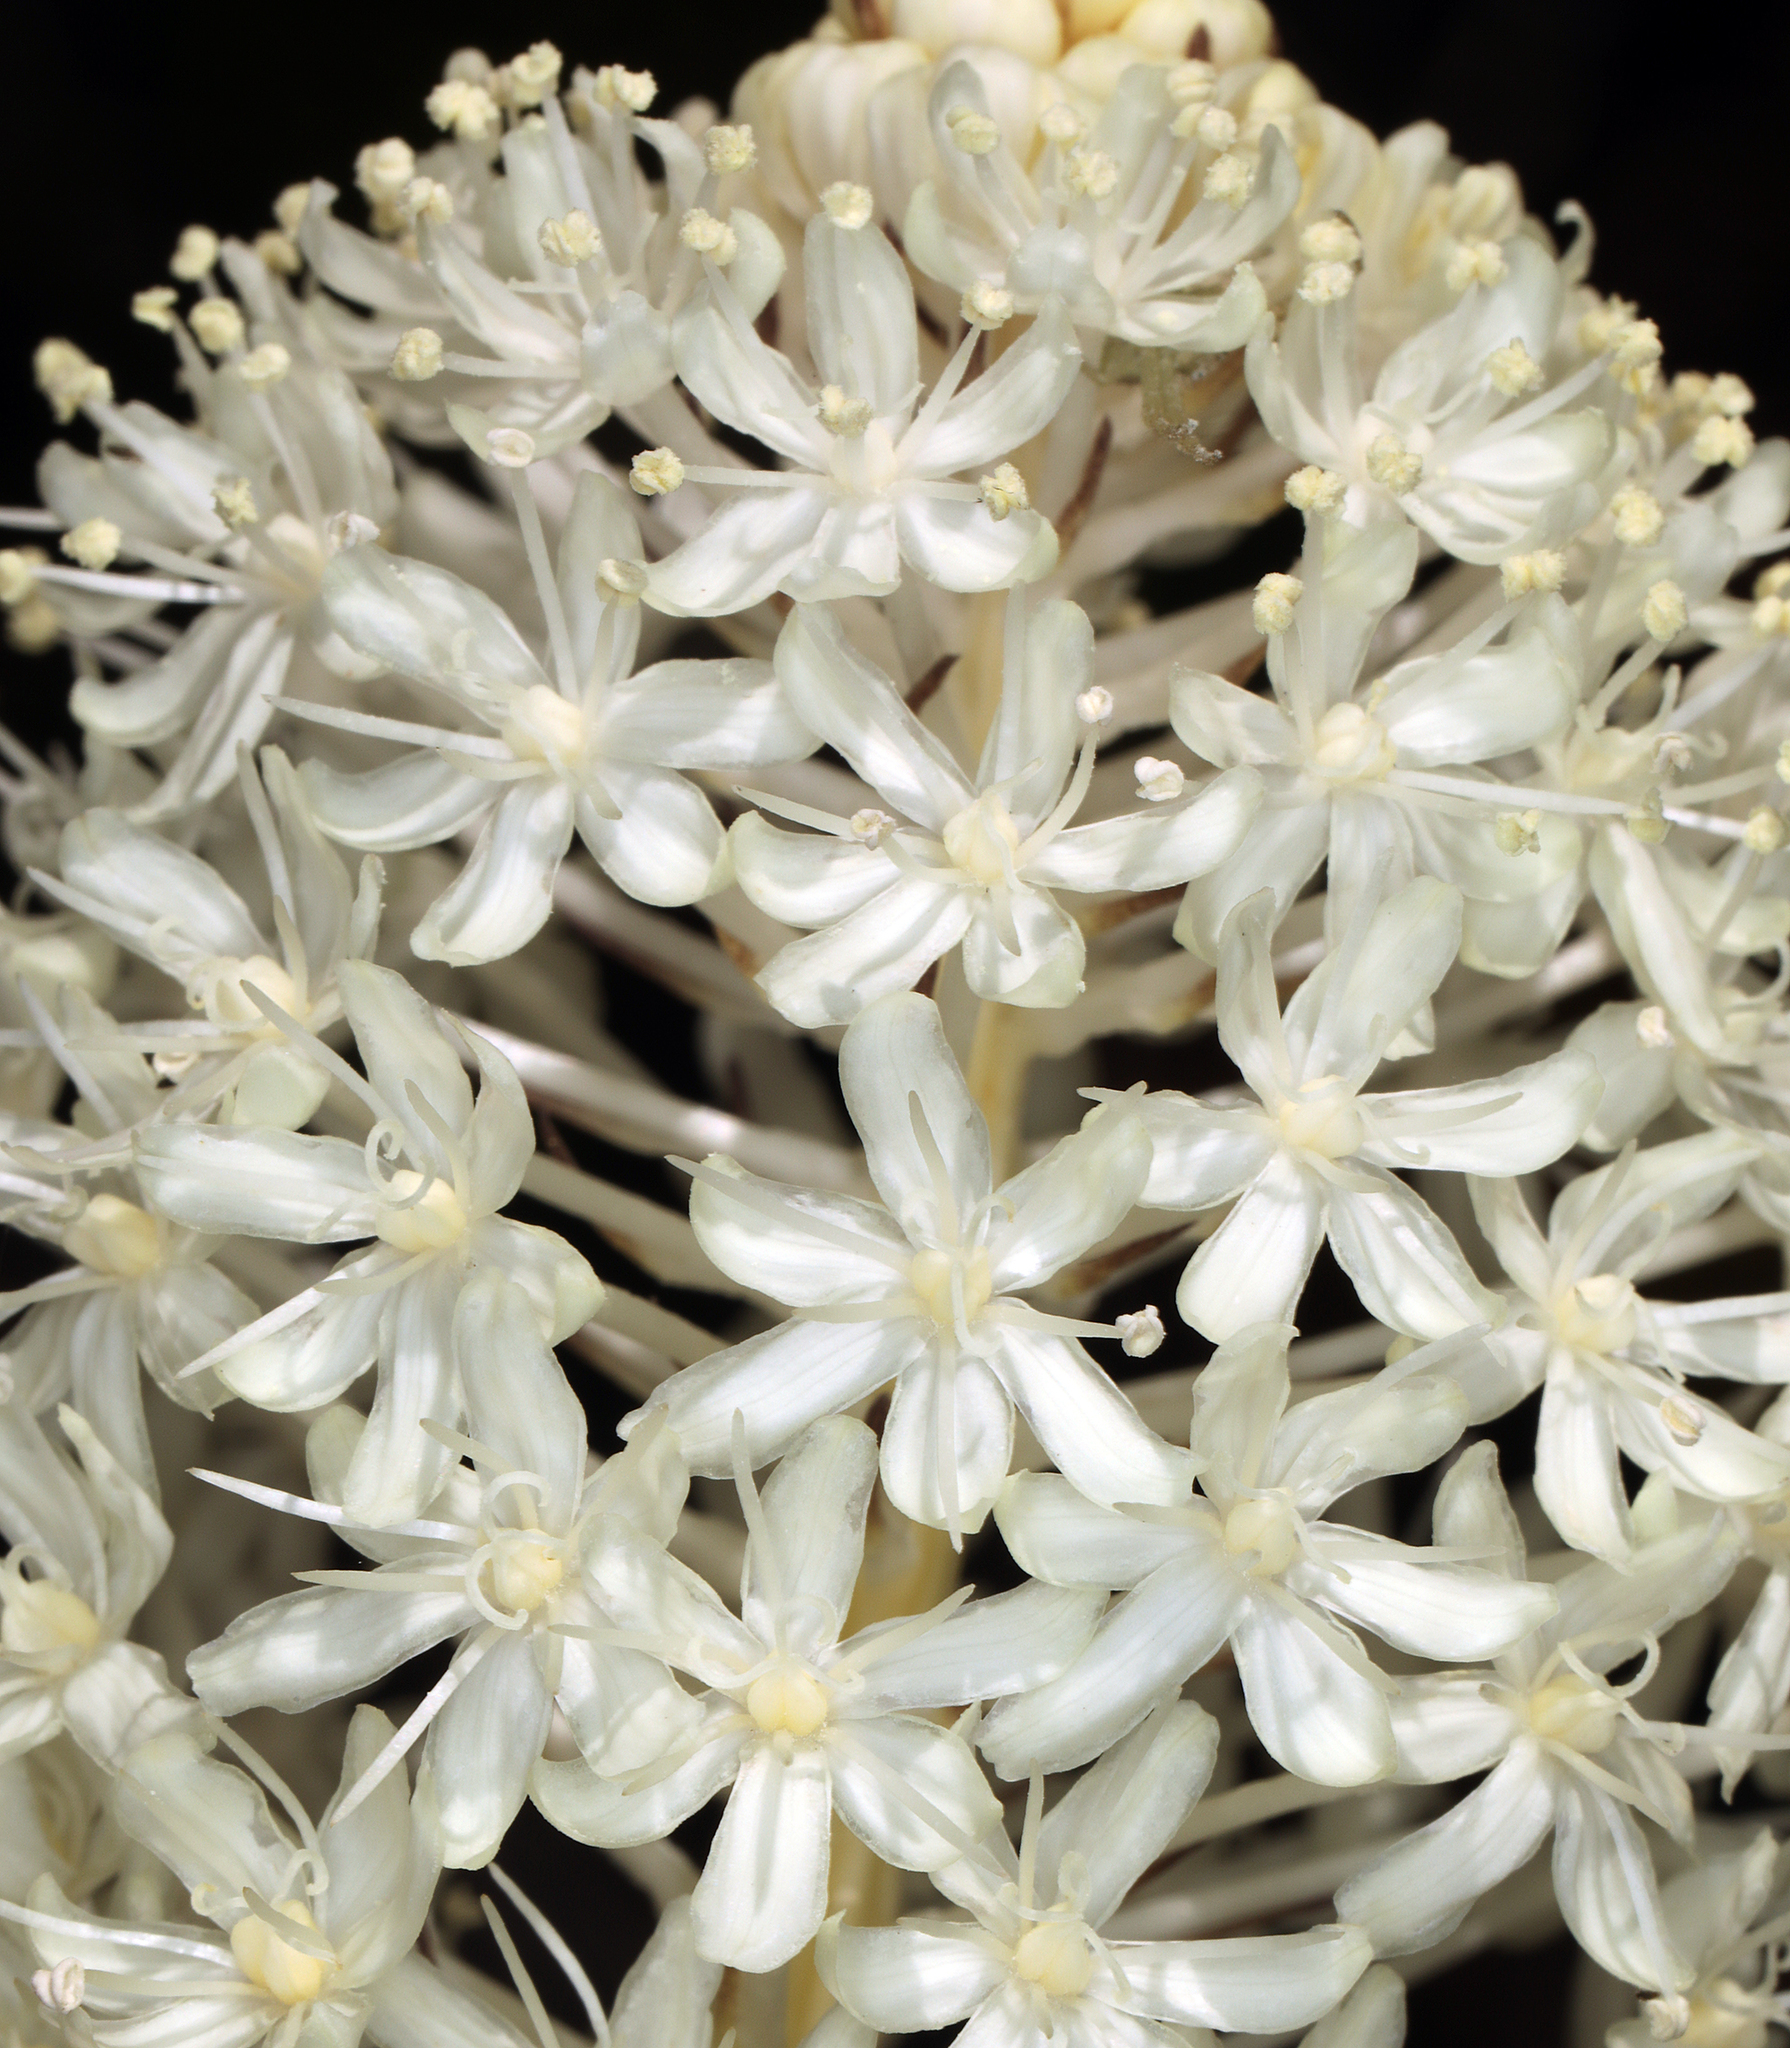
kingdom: Plantae
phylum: Tracheophyta
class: Liliopsida
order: Liliales
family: Melanthiaceae
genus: Xerophyllum
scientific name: Xerophyllum tenax
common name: Bear-grass
